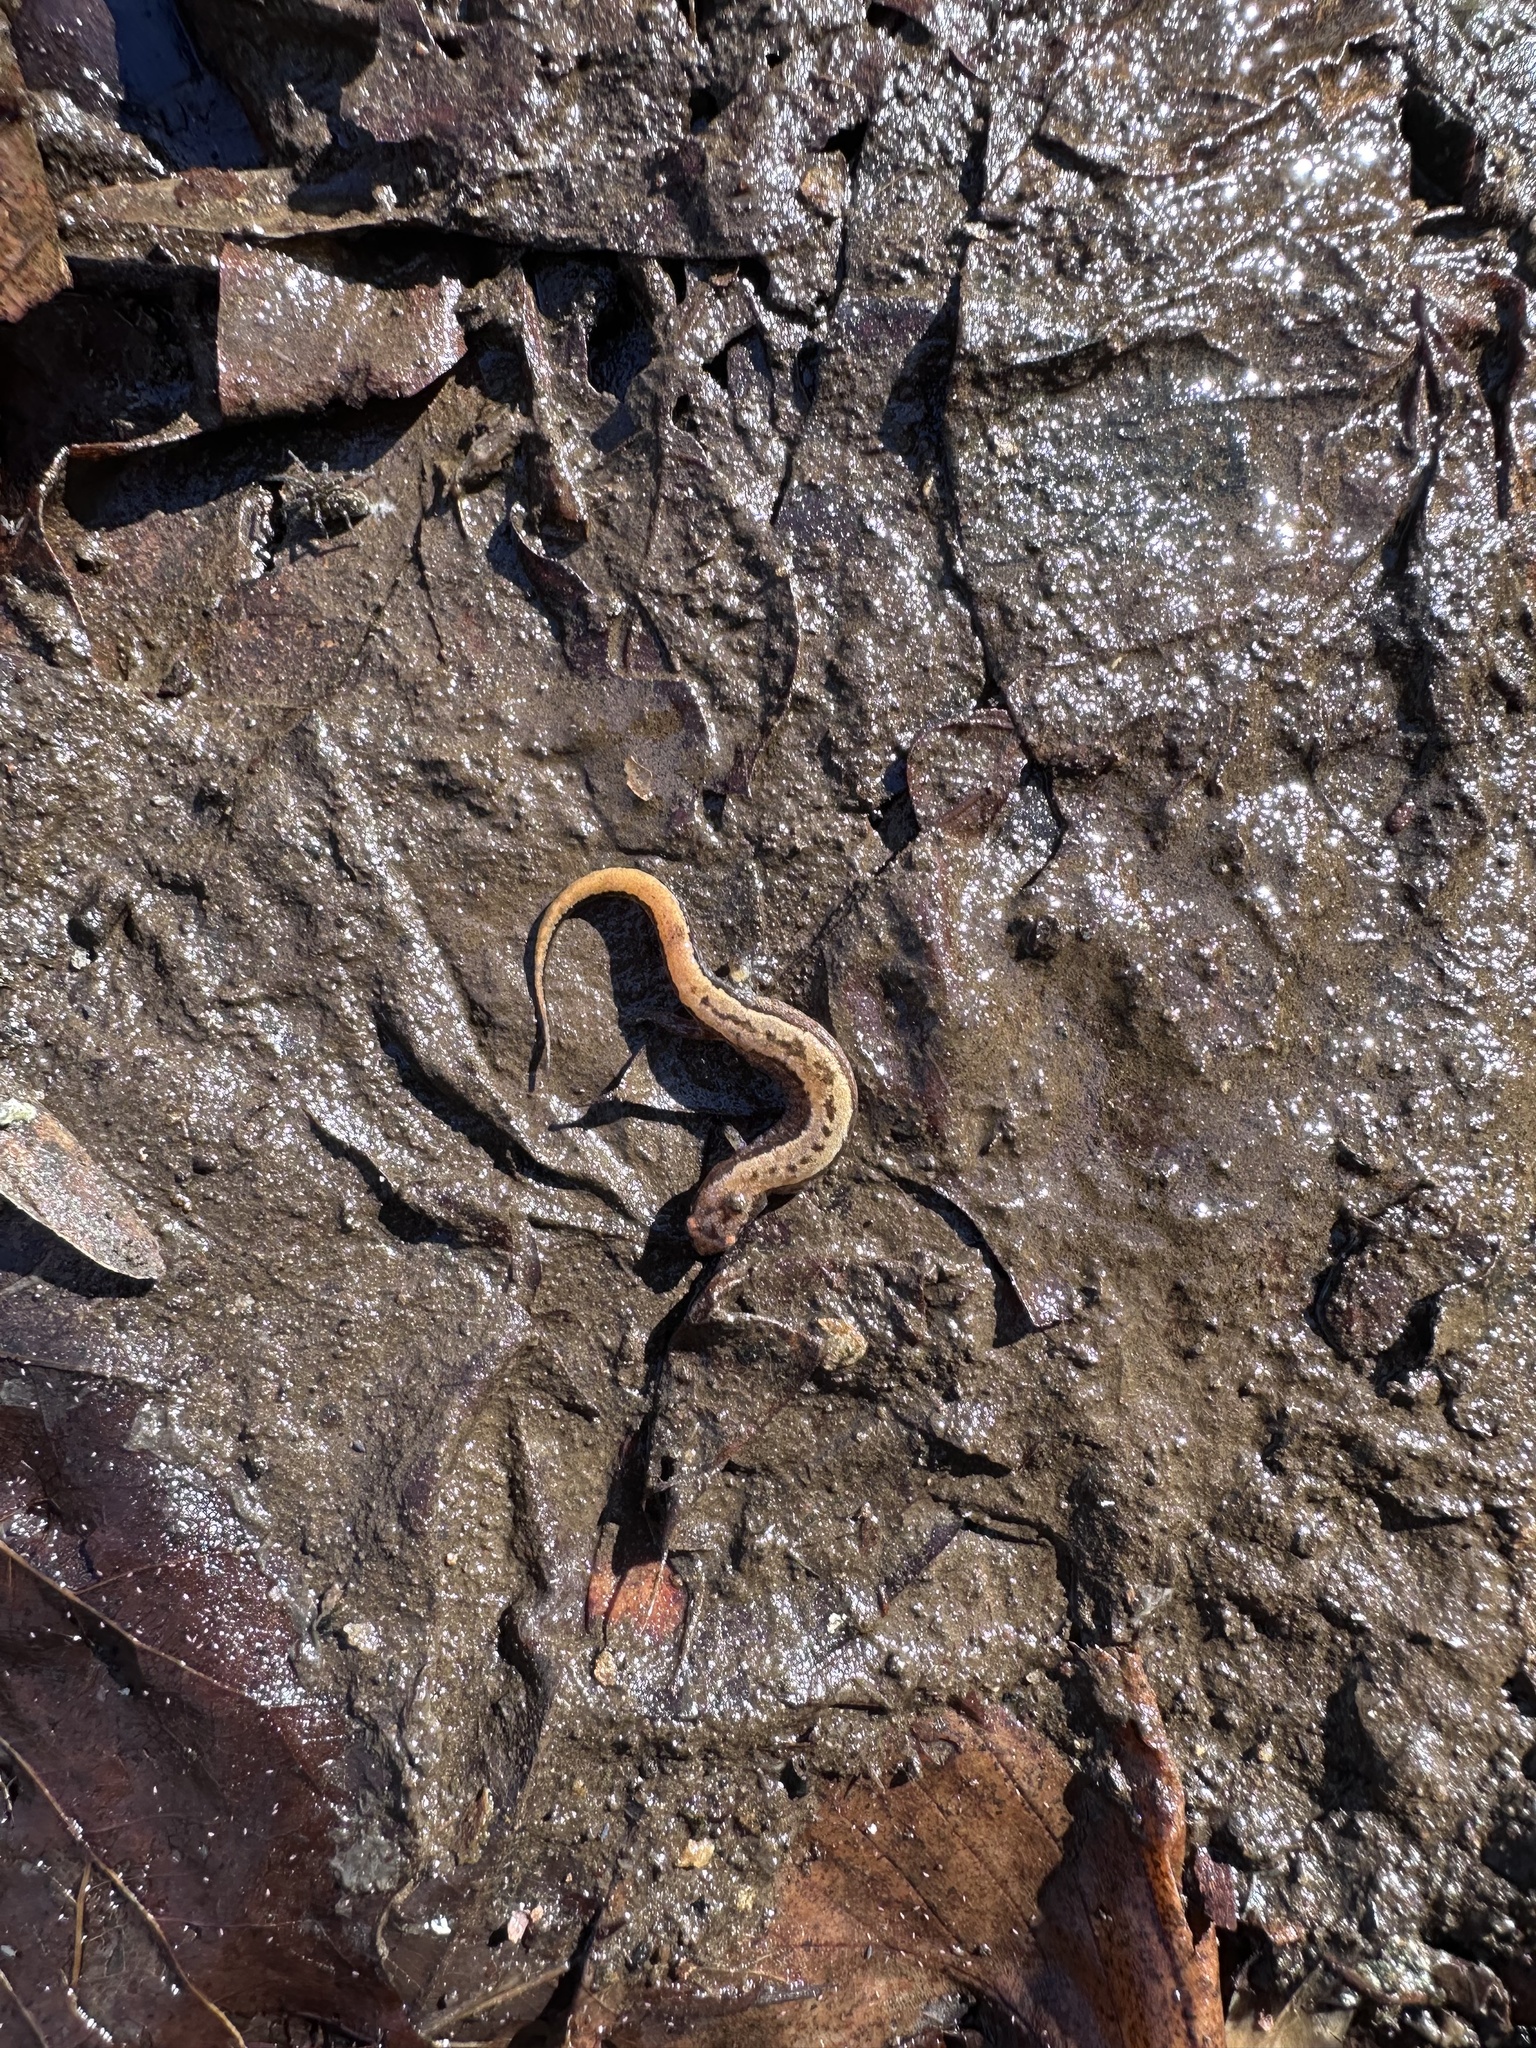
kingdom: Animalia
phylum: Chordata
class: Amphibia
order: Caudata
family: Plethodontidae
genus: Desmognathus
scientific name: Desmognathus aeneus
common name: Seepage salamander
